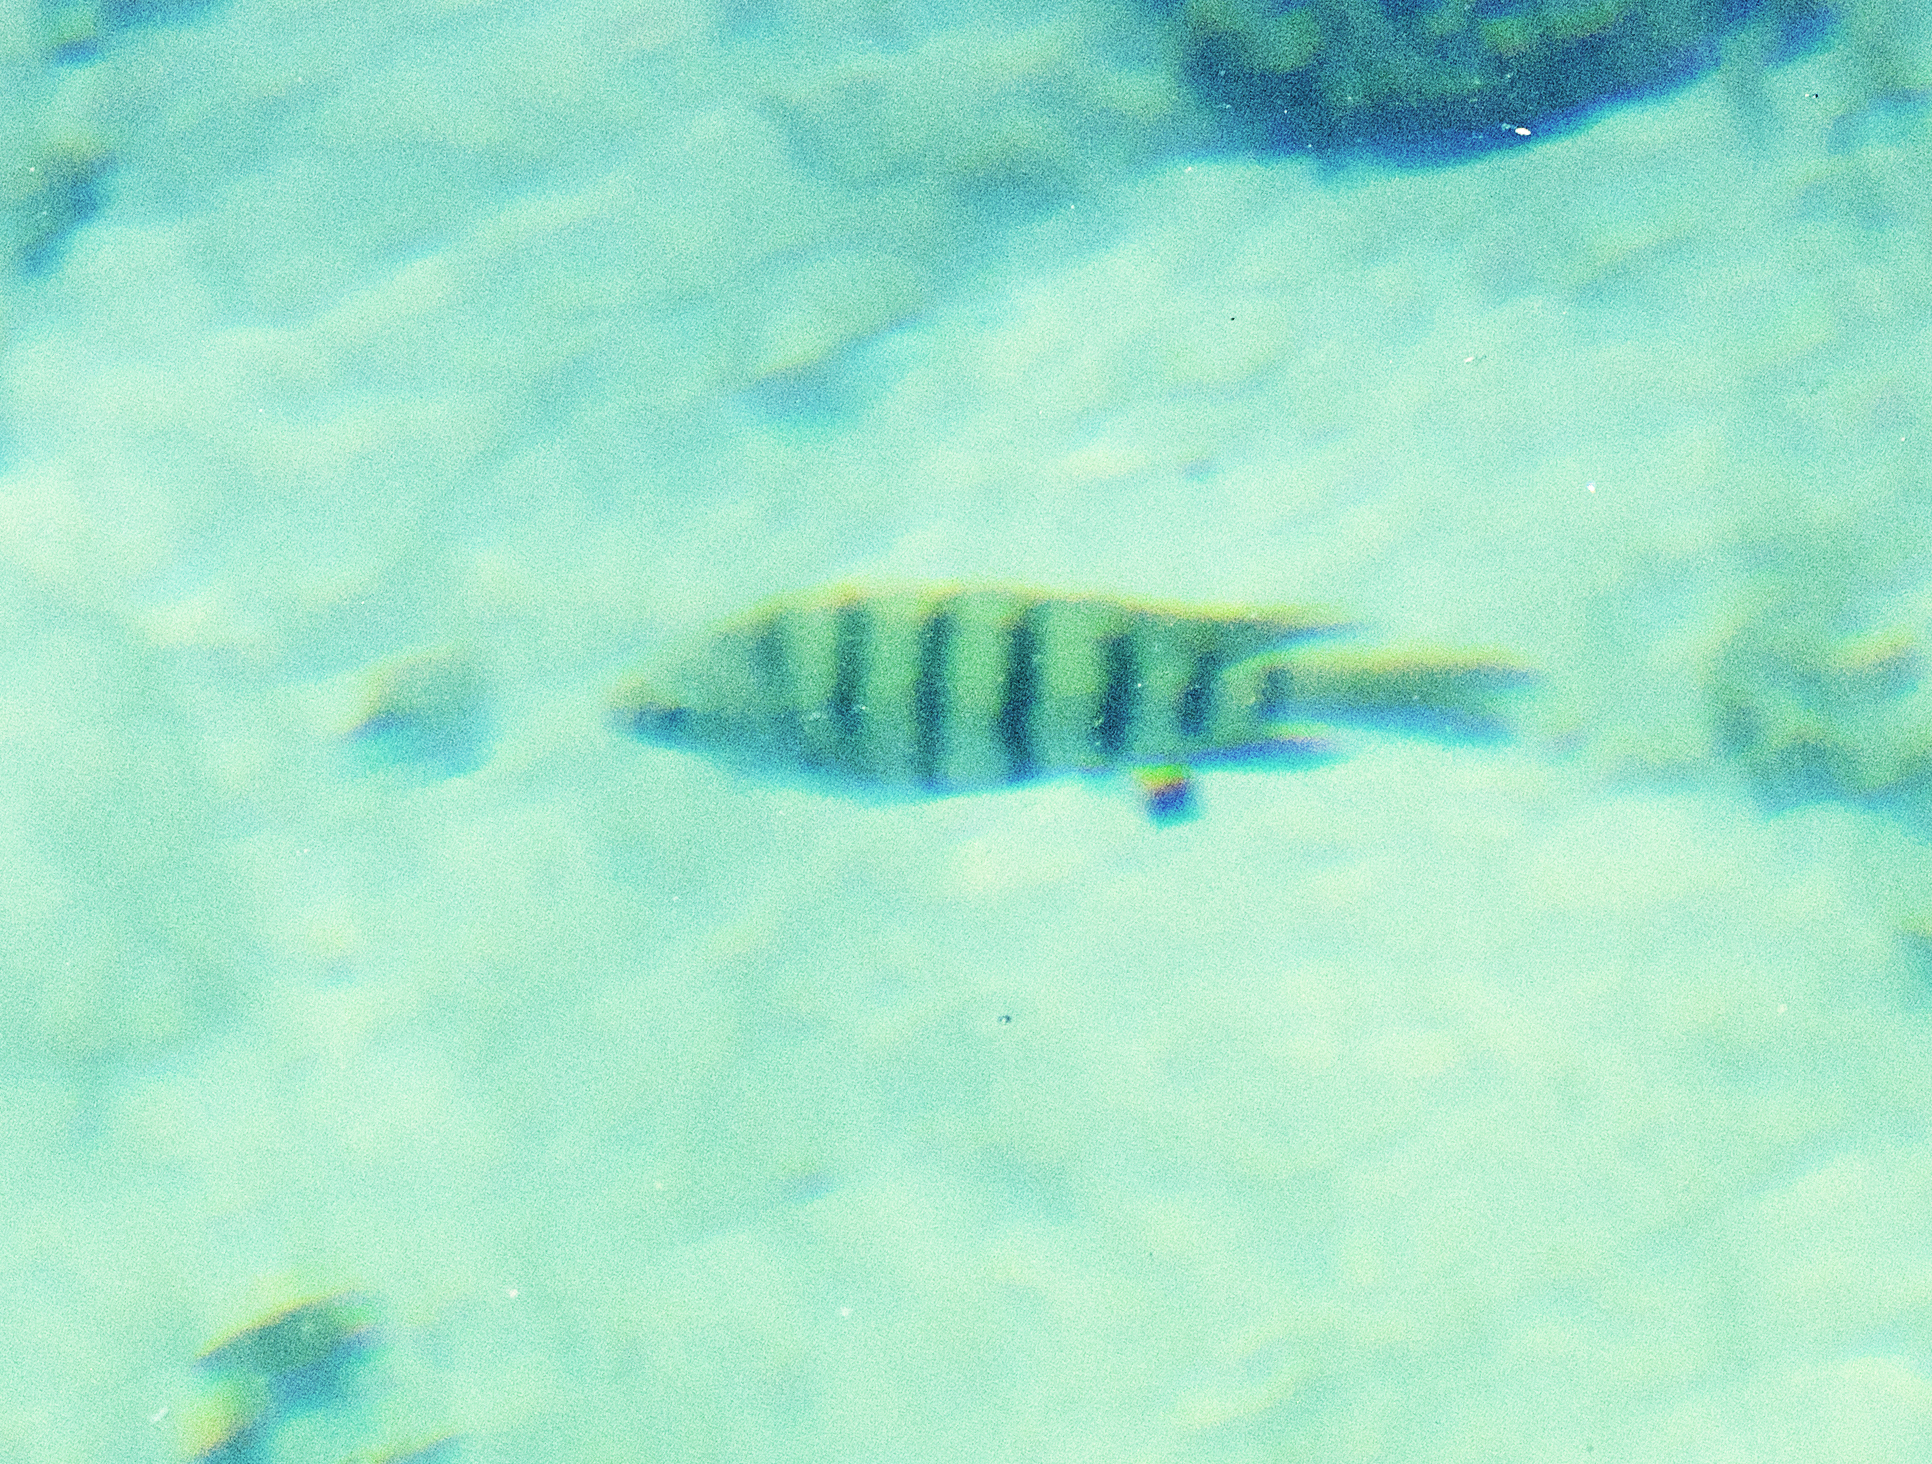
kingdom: Animalia
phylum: Chordata
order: Perciformes
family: Pomacentridae
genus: Abudefduf
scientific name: Abudefduf bengalensis
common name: Bengal sergeant
